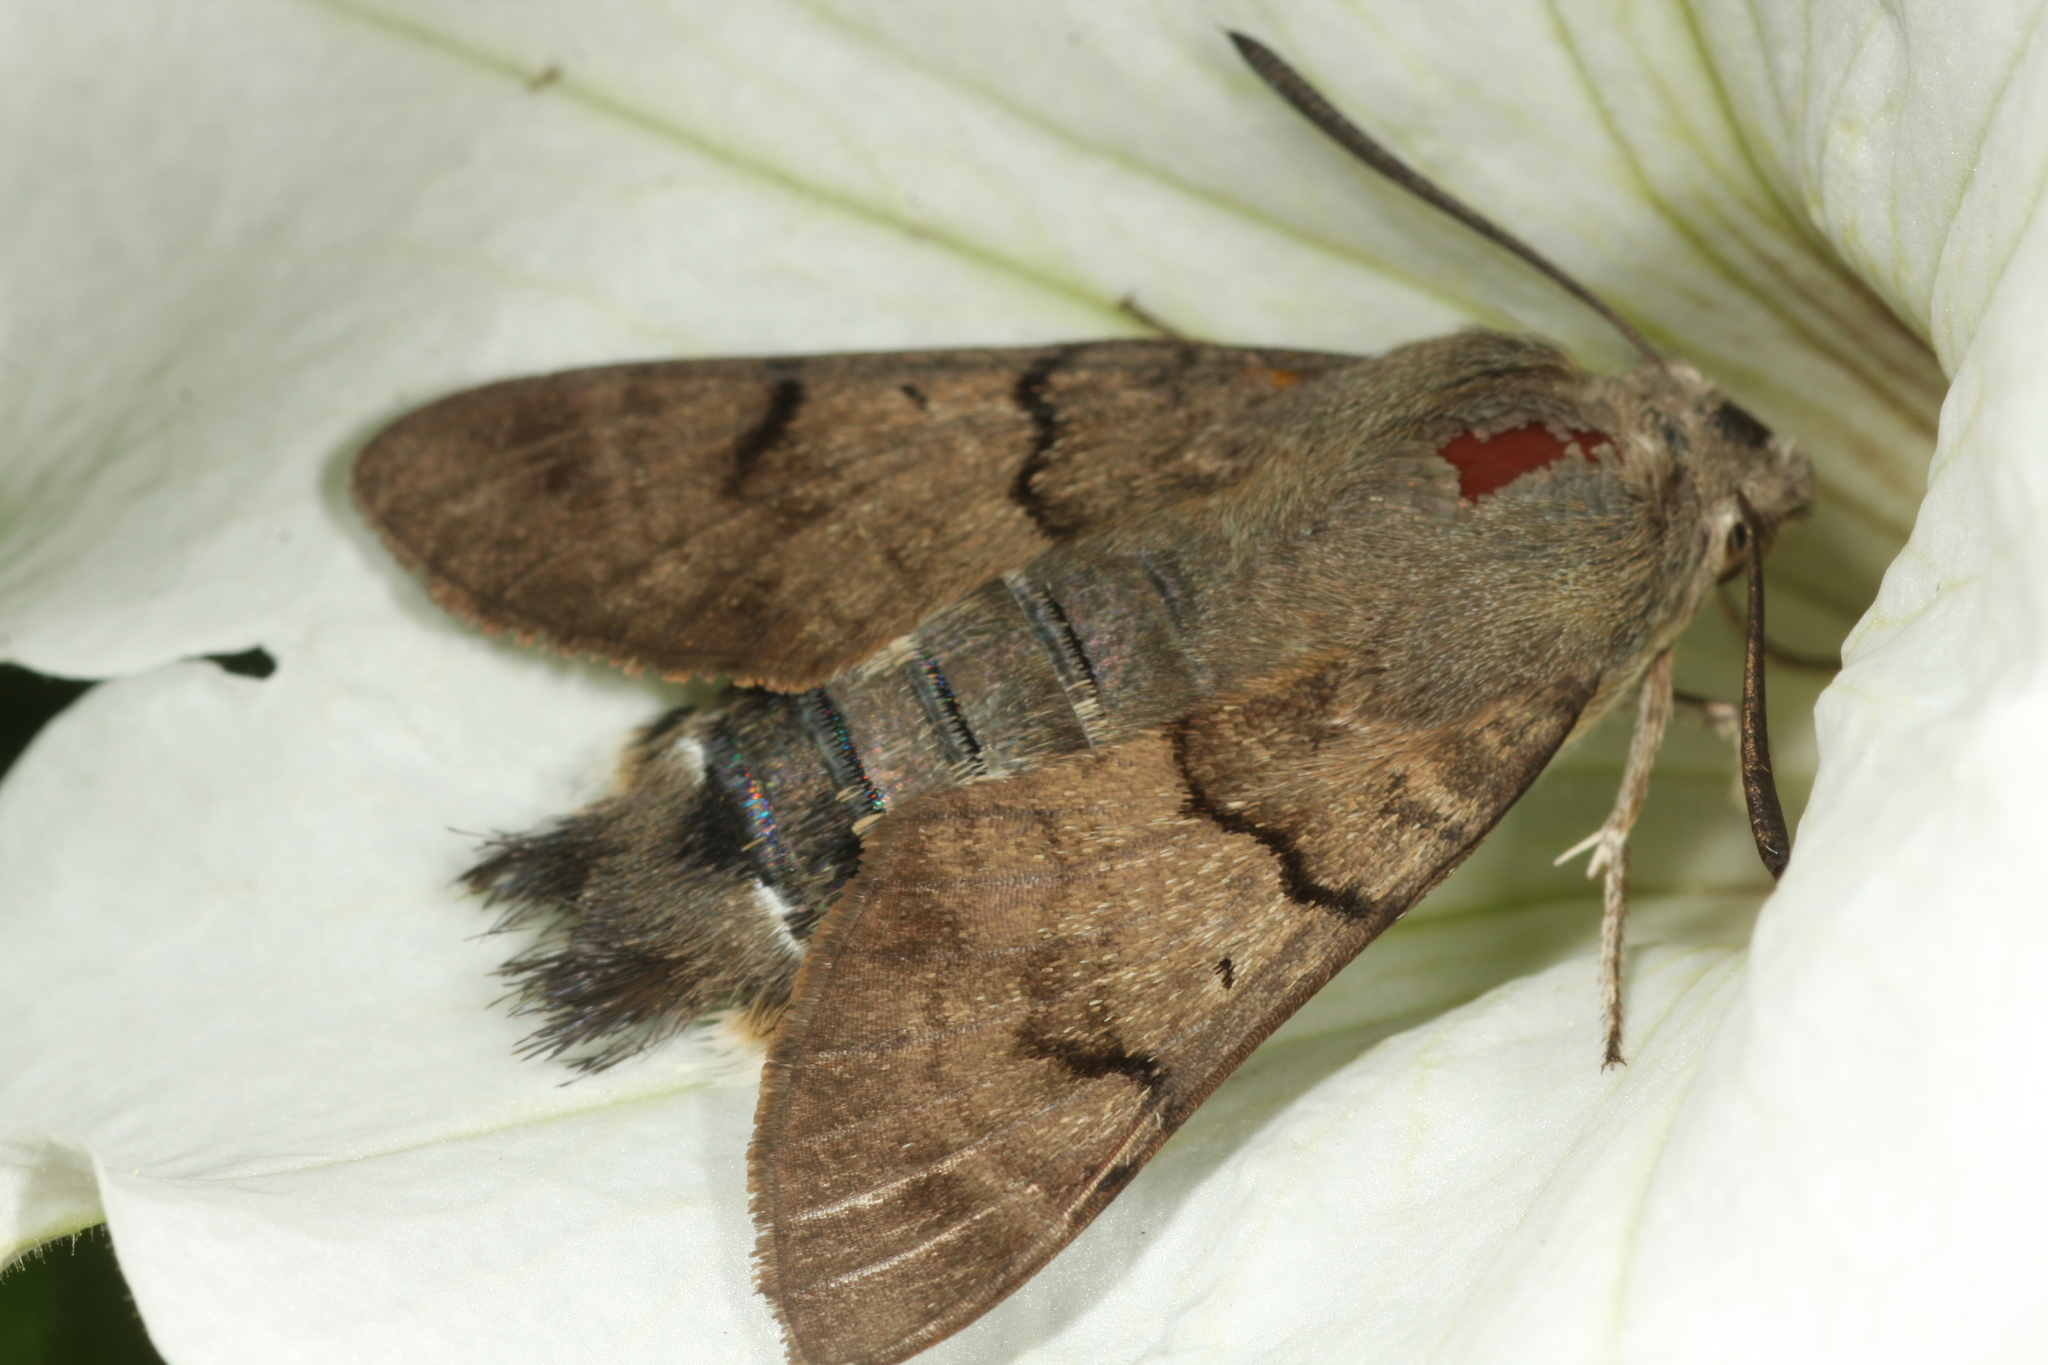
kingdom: Animalia
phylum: Arthropoda
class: Insecta
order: Lepidoptera
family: Sphingidae
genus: Macroglossum
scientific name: Macroglossum stellatarum
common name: Humming-bird hawk-moth
